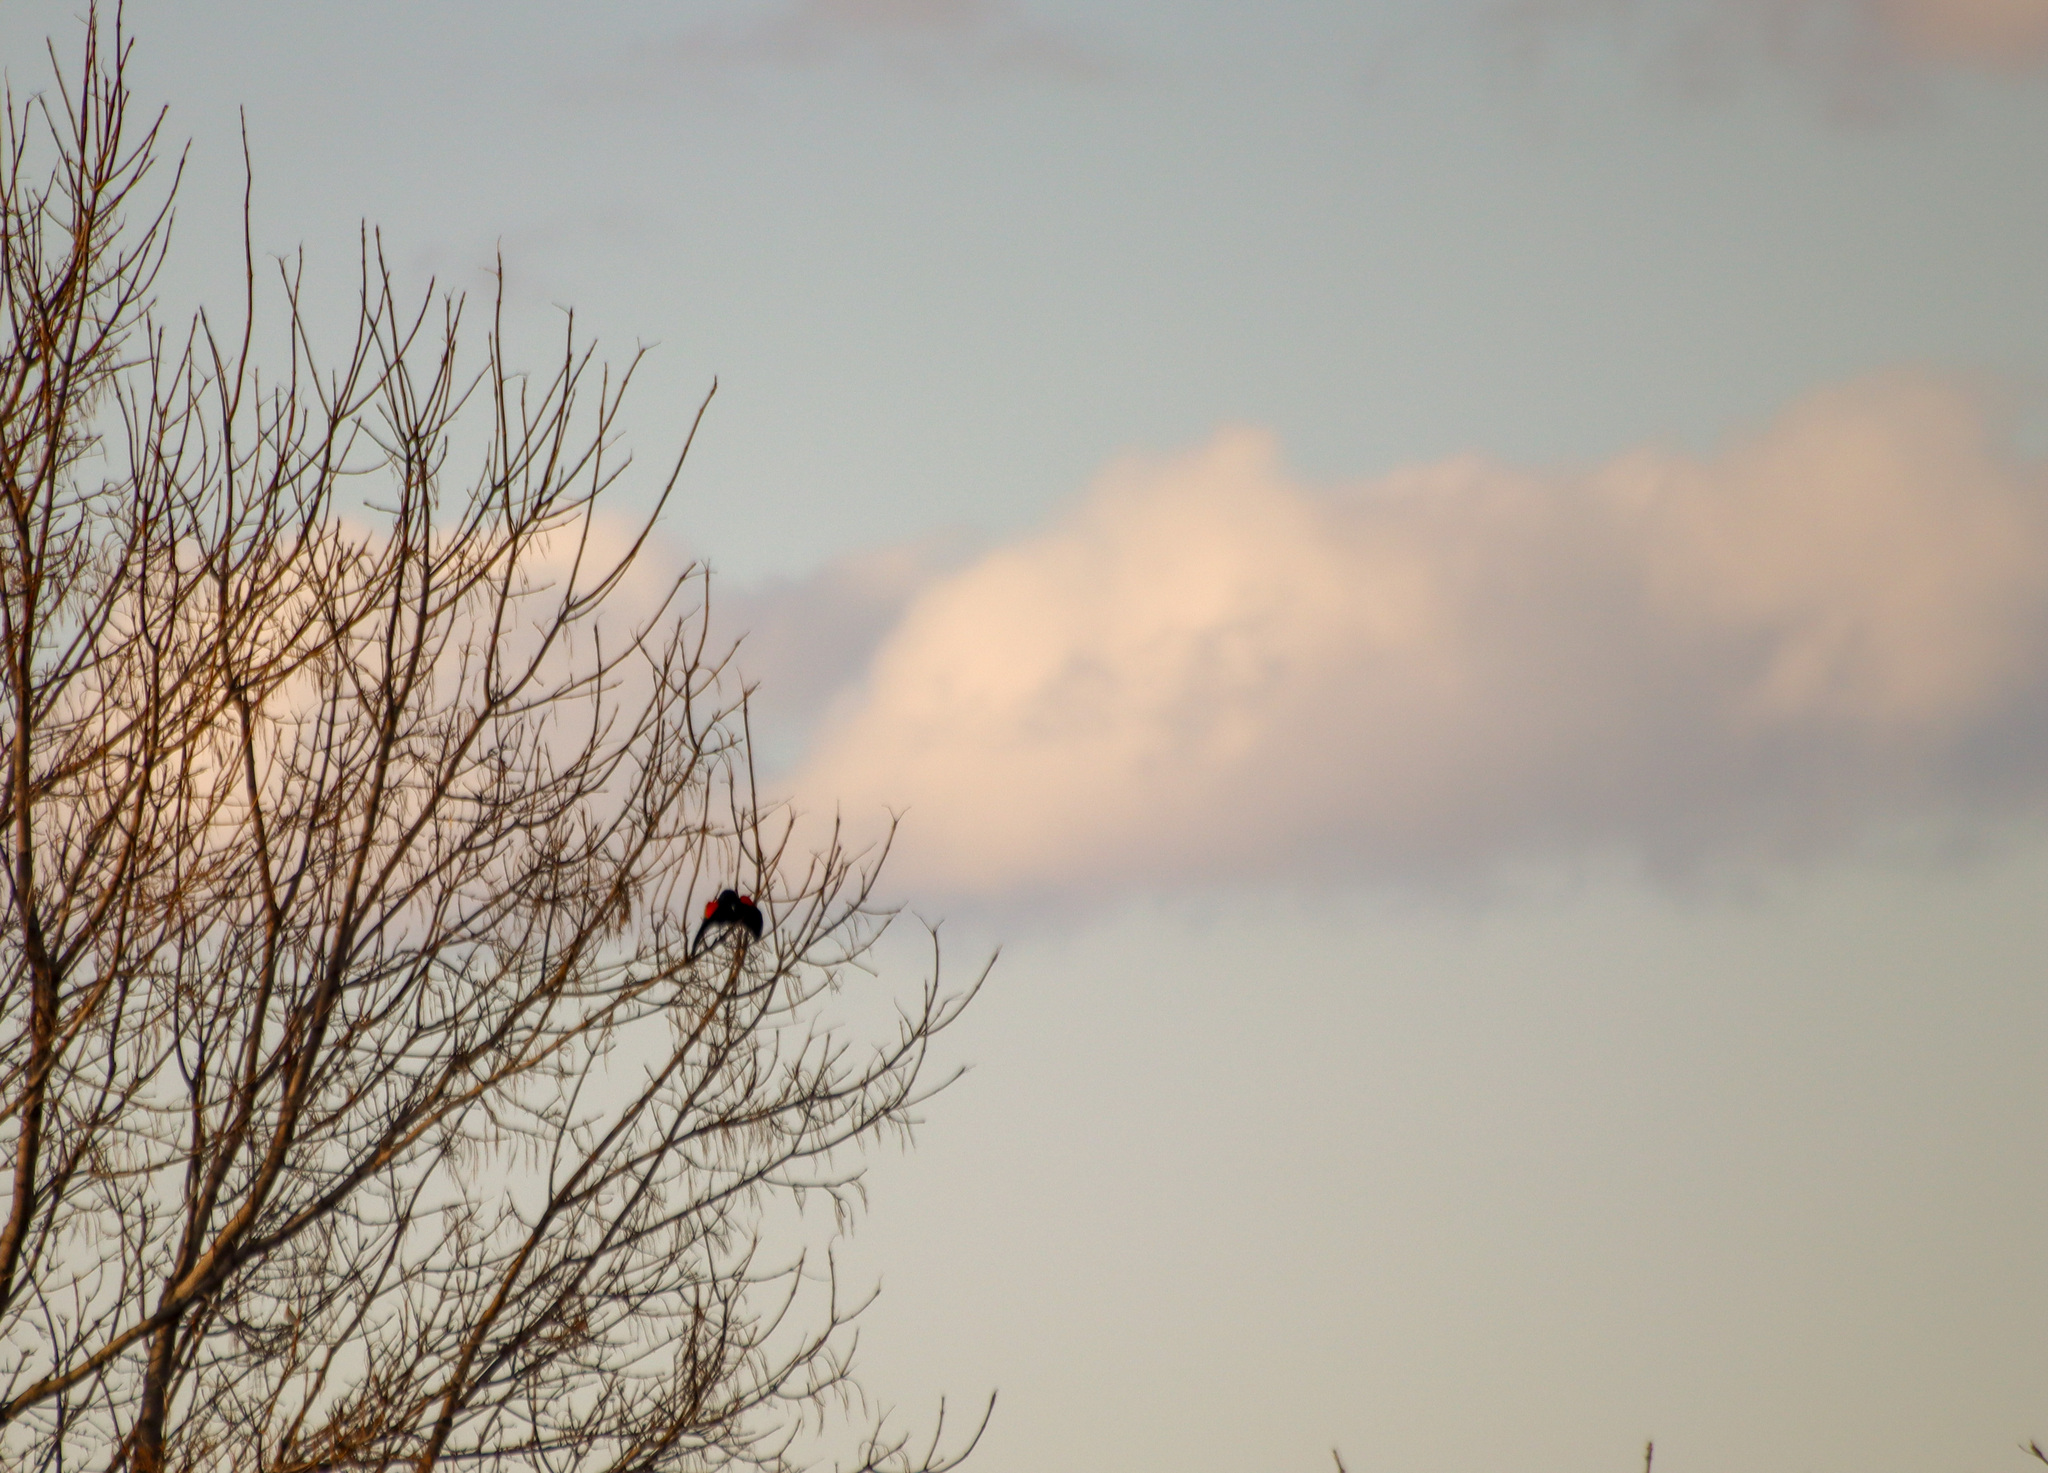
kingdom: Animalia
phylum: Chordata
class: Aves
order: Passeriformes
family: Icteridae
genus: Agelaius
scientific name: Agelaius phoeniceus
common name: Red-winged blackbird
